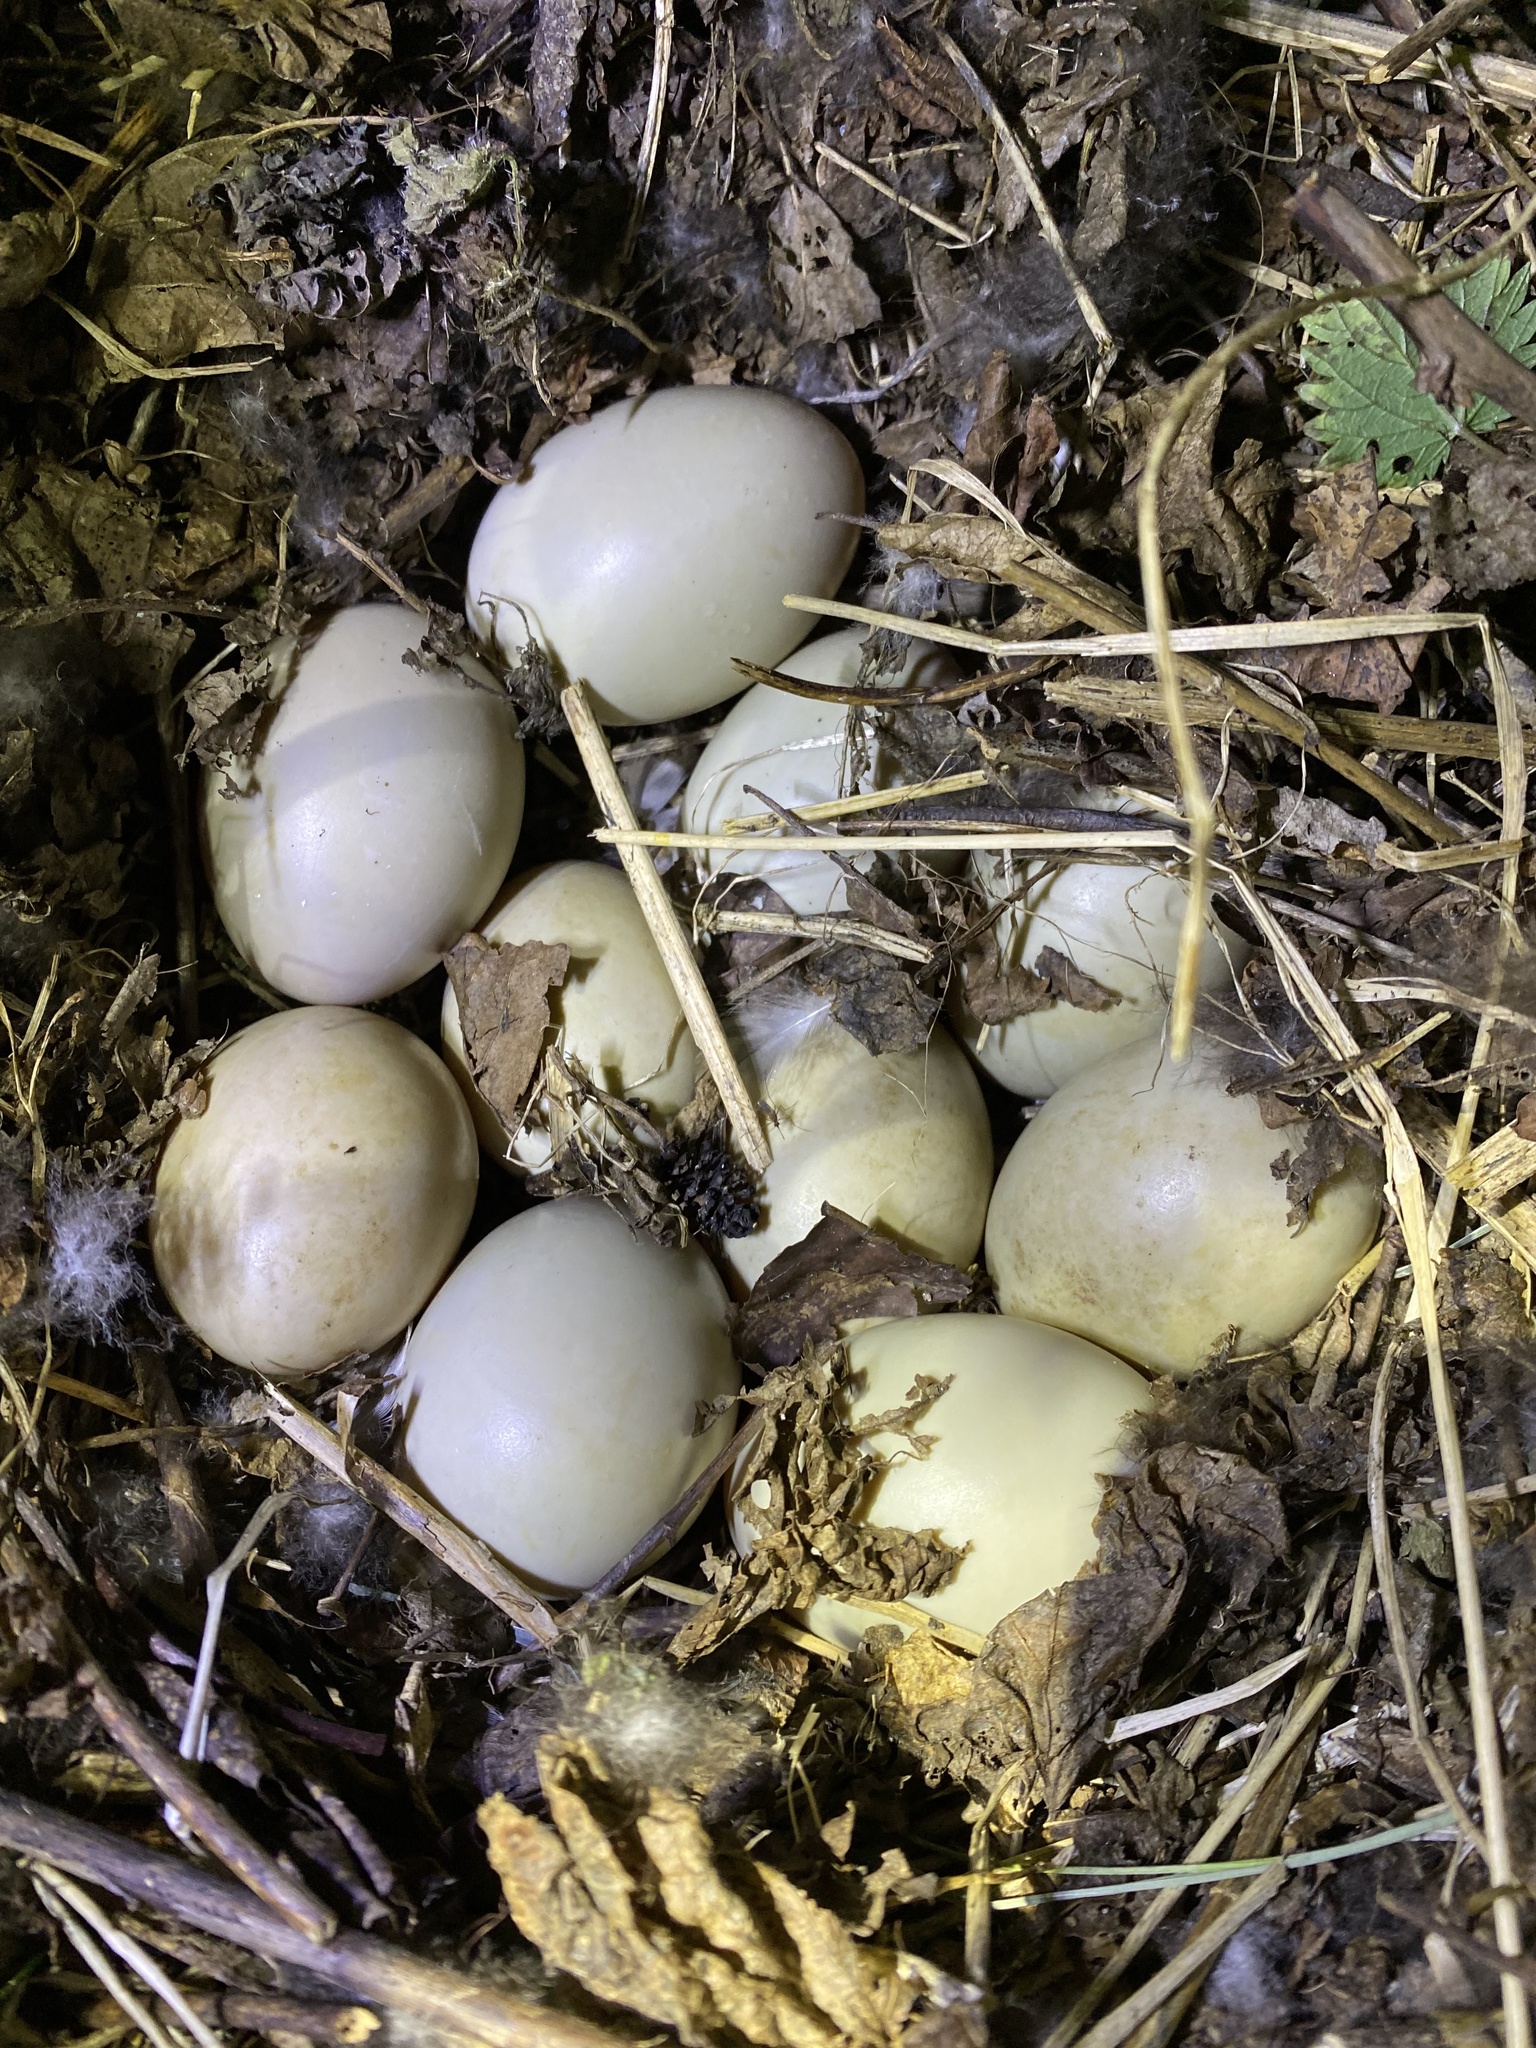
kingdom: Animalia
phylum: Chordata
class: Aves
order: Anseriformes
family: Anatidae
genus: Anas
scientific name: Anas platyrhynchos
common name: Mallard
